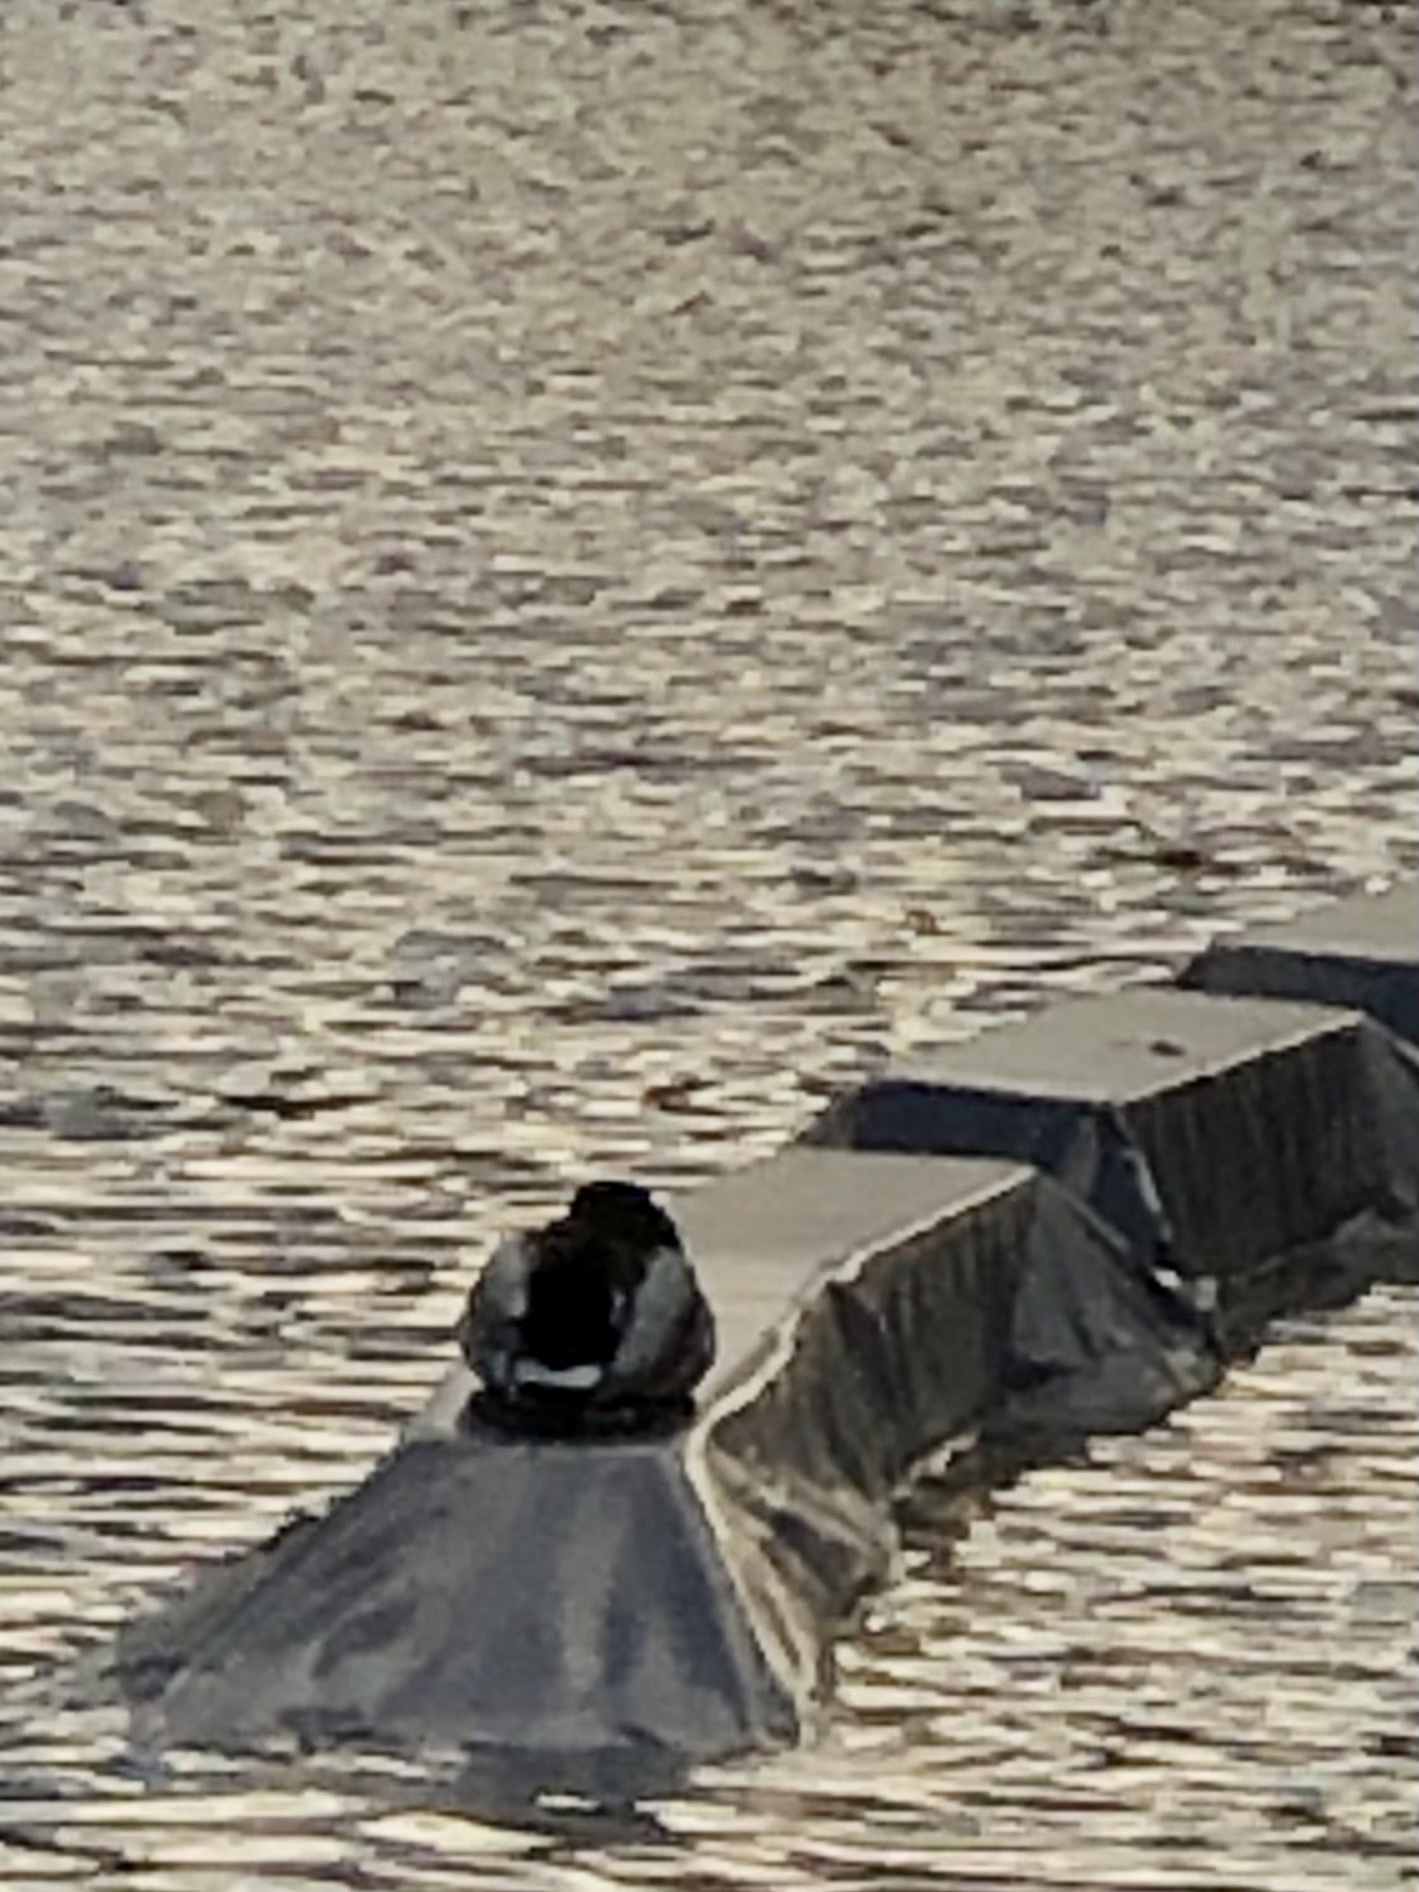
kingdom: Animalia
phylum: Chordata
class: Aves
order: Anseriformes
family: Anatidae
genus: Anas
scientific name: Anas platyrhynchos
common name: Mallard
